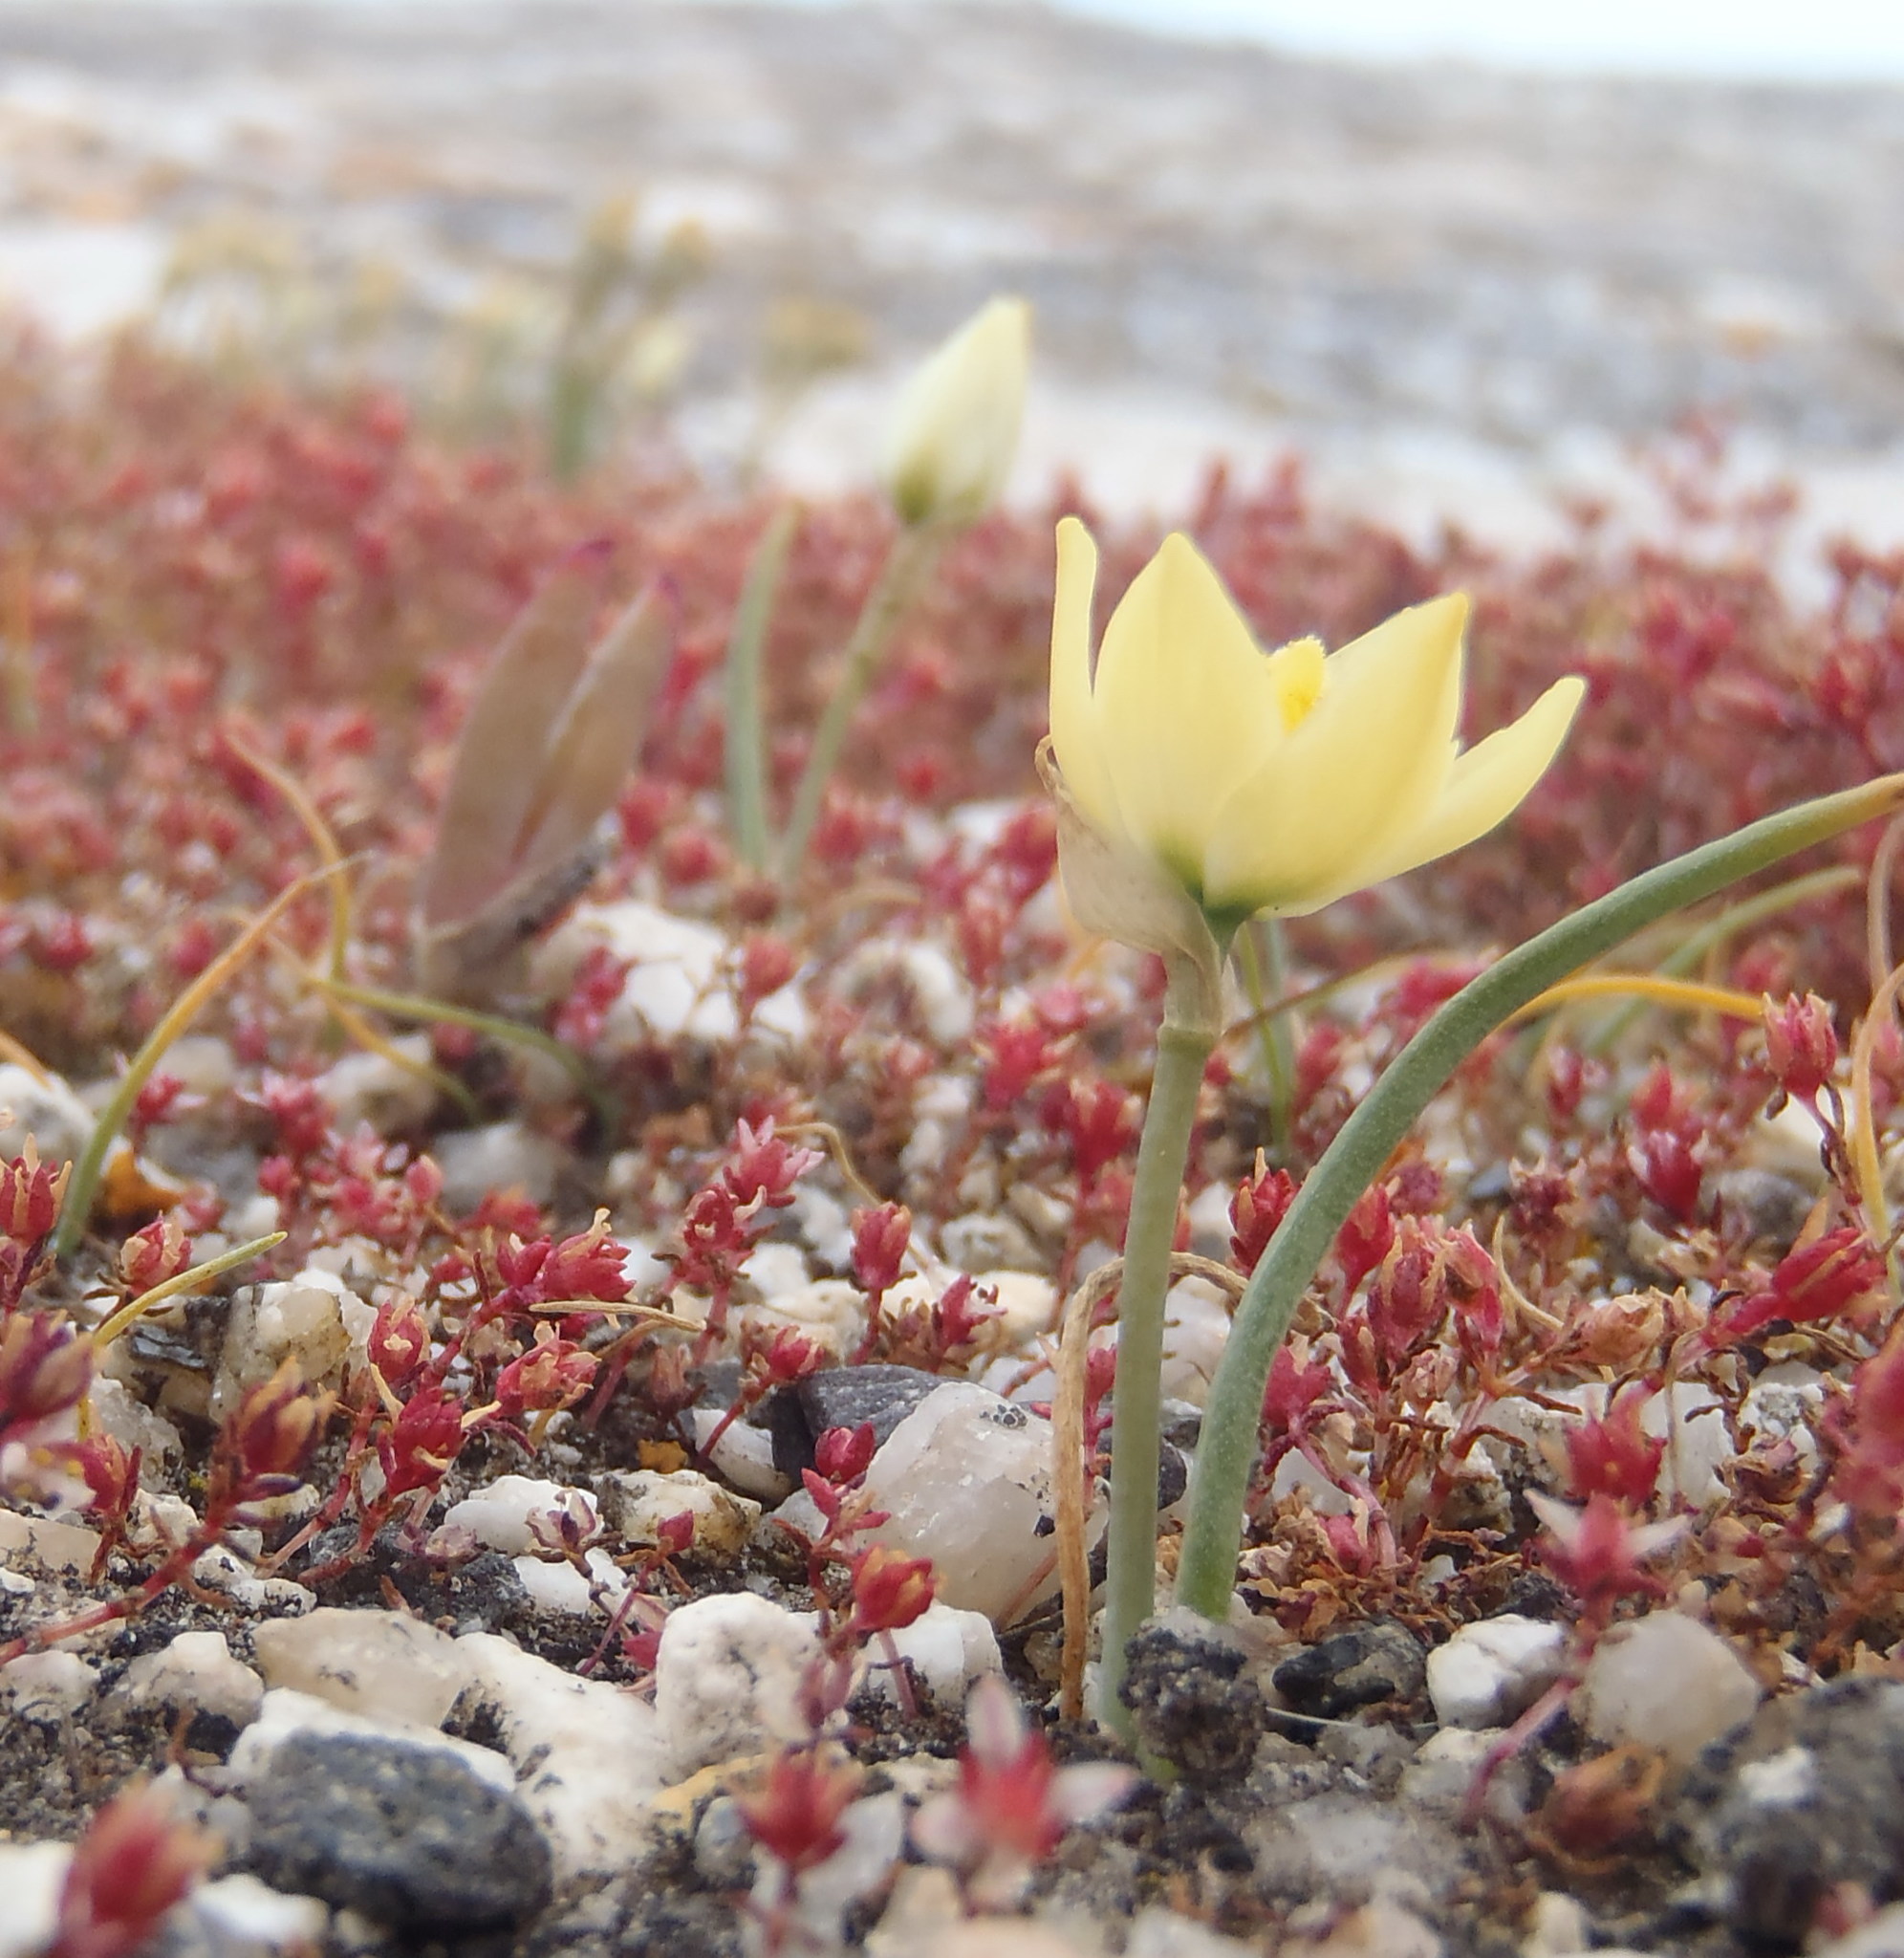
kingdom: Plantae
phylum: Tracheophyta
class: Liliopsida
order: Asparagales
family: Asparagaceae
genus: Ornithogalum
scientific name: Ornithogalum rupestre
